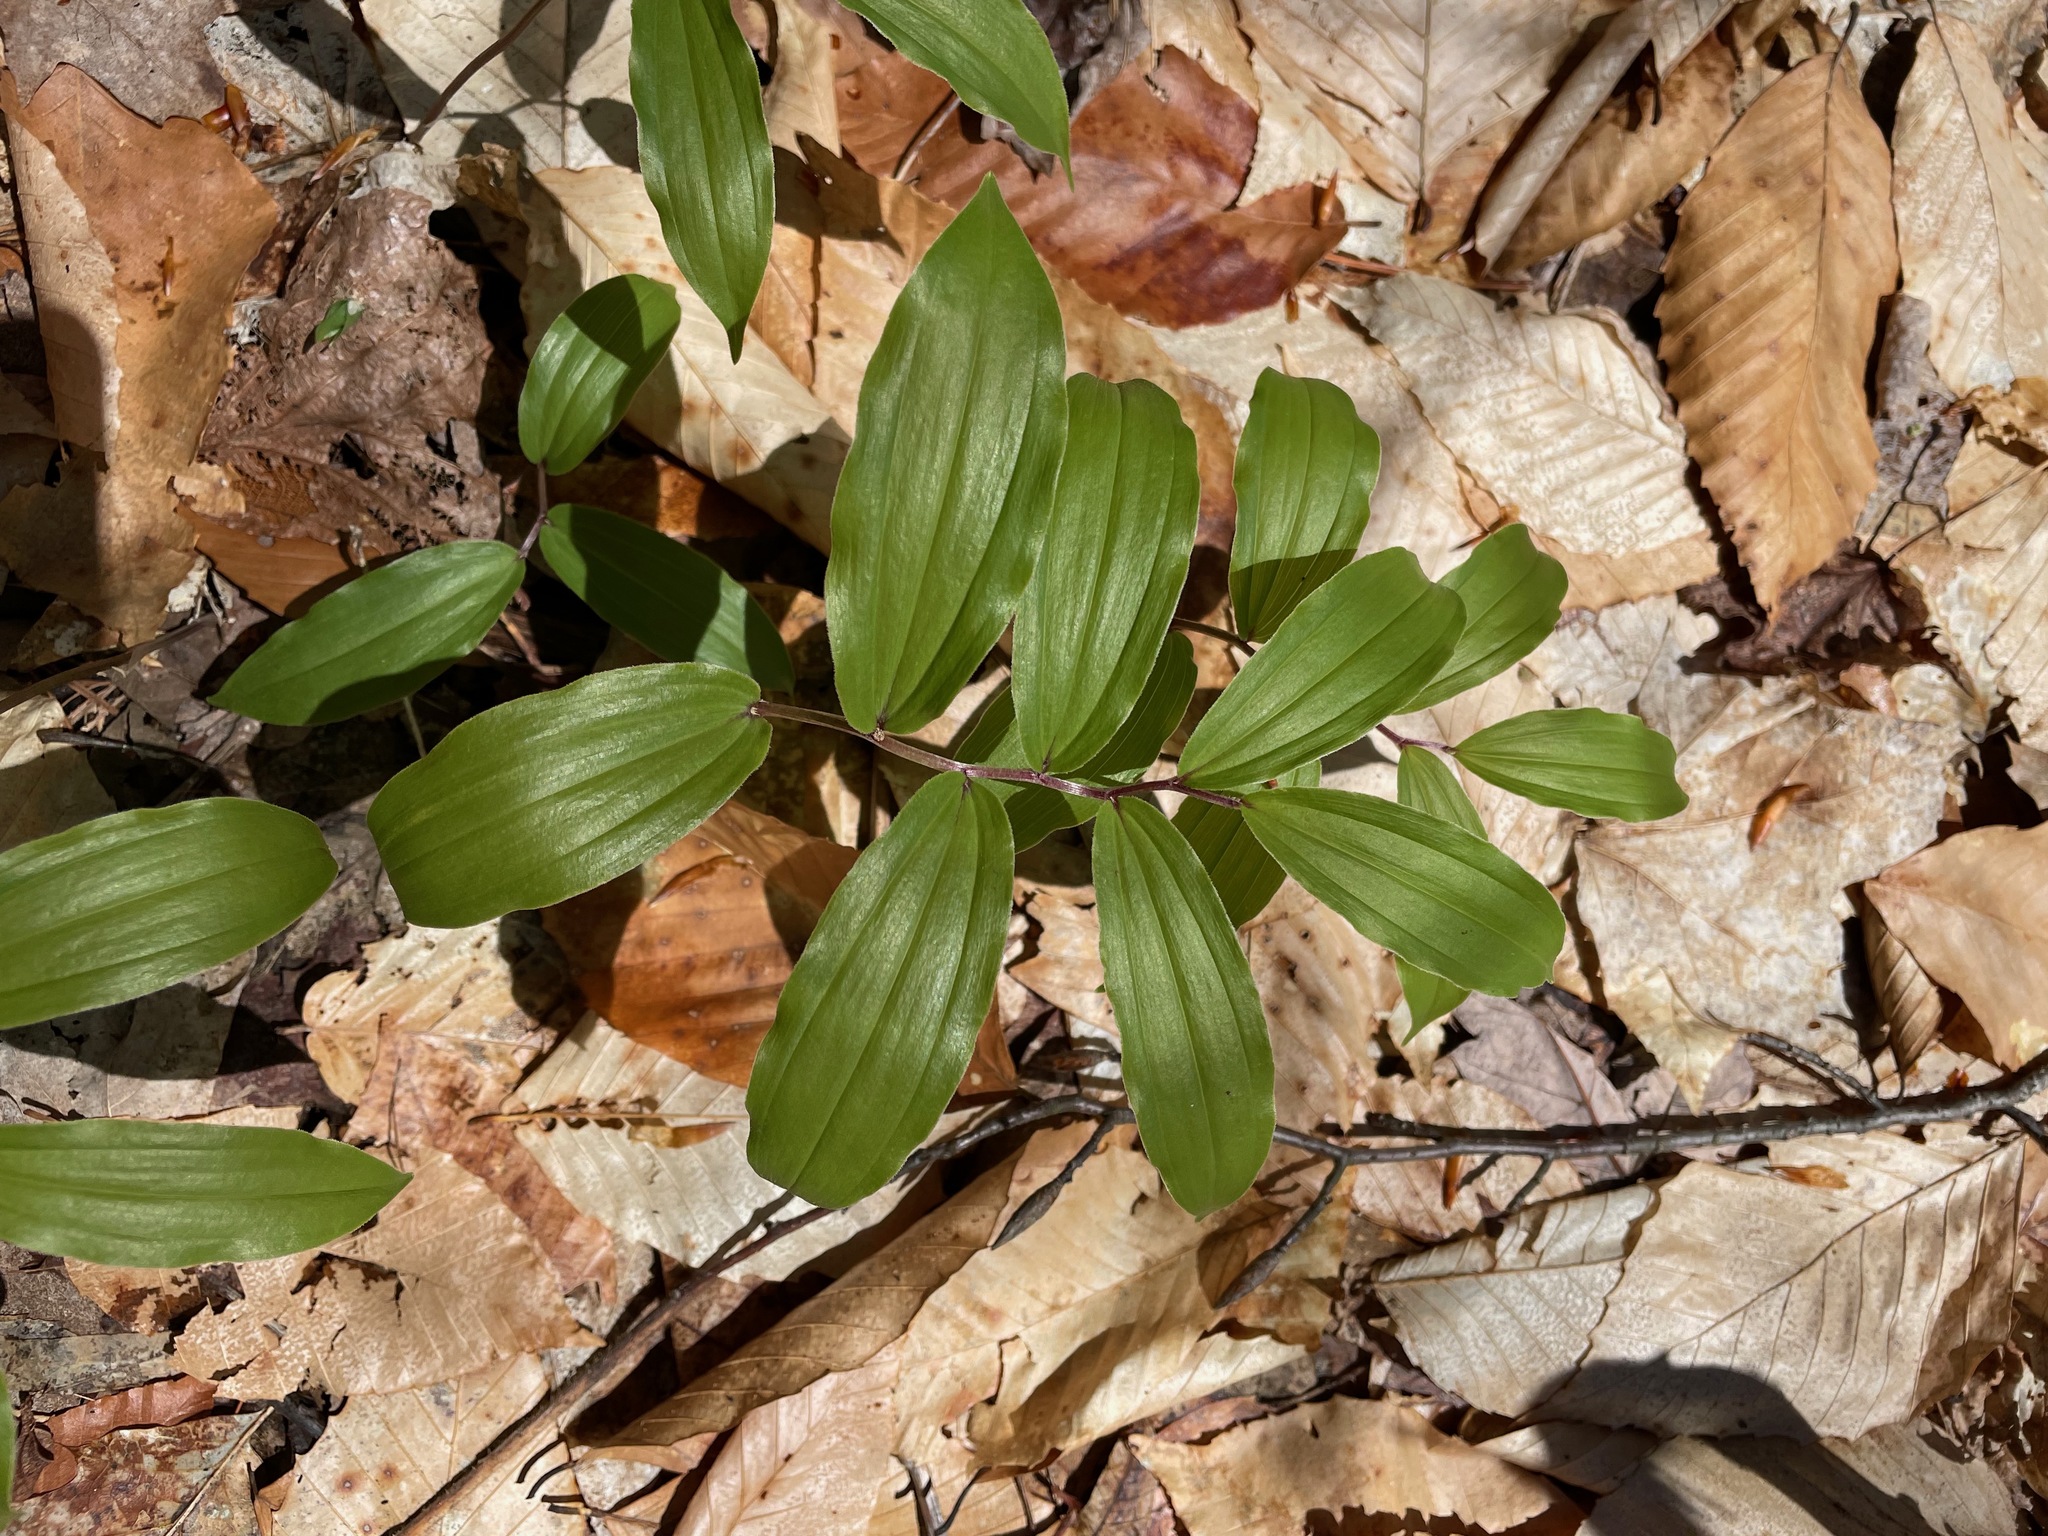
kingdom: Plantae
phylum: Tracheophyta
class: Liliopsida
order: Asparagales
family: Asparagaceae
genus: Maianthemum
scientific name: Maianthemum racemosum
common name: False spikenard
